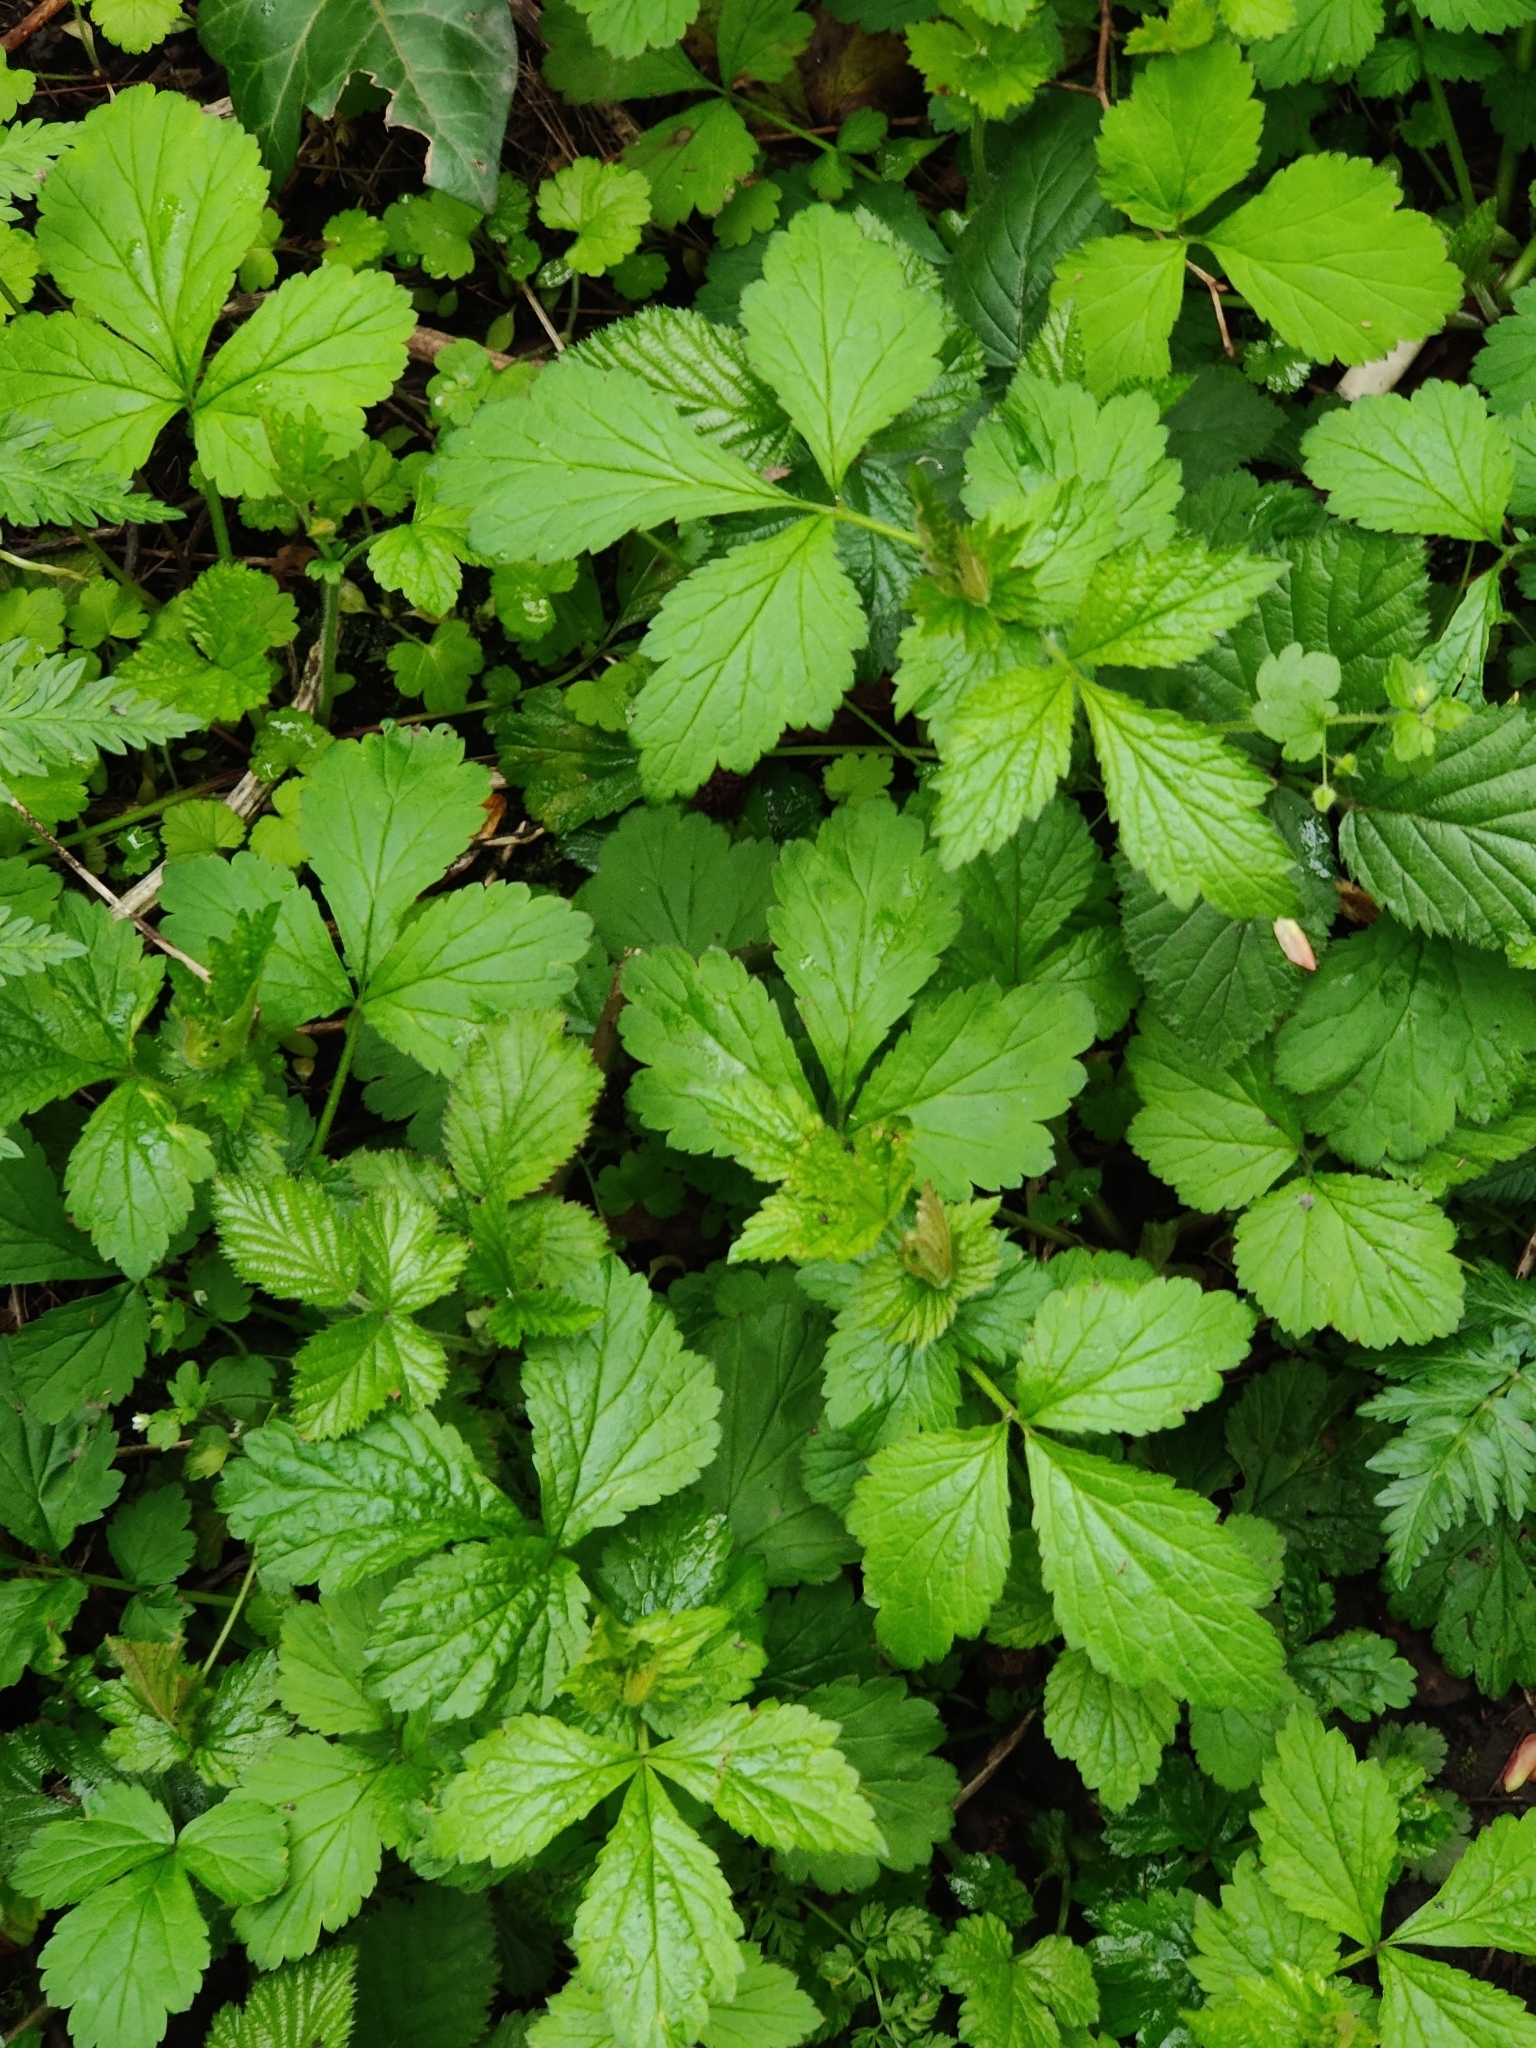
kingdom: Plantae
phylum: Tracheophyta
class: Magnoliopsida
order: Rosales
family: Rosaceae
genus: Geum
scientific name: Geum urbanum
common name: Wood avens
